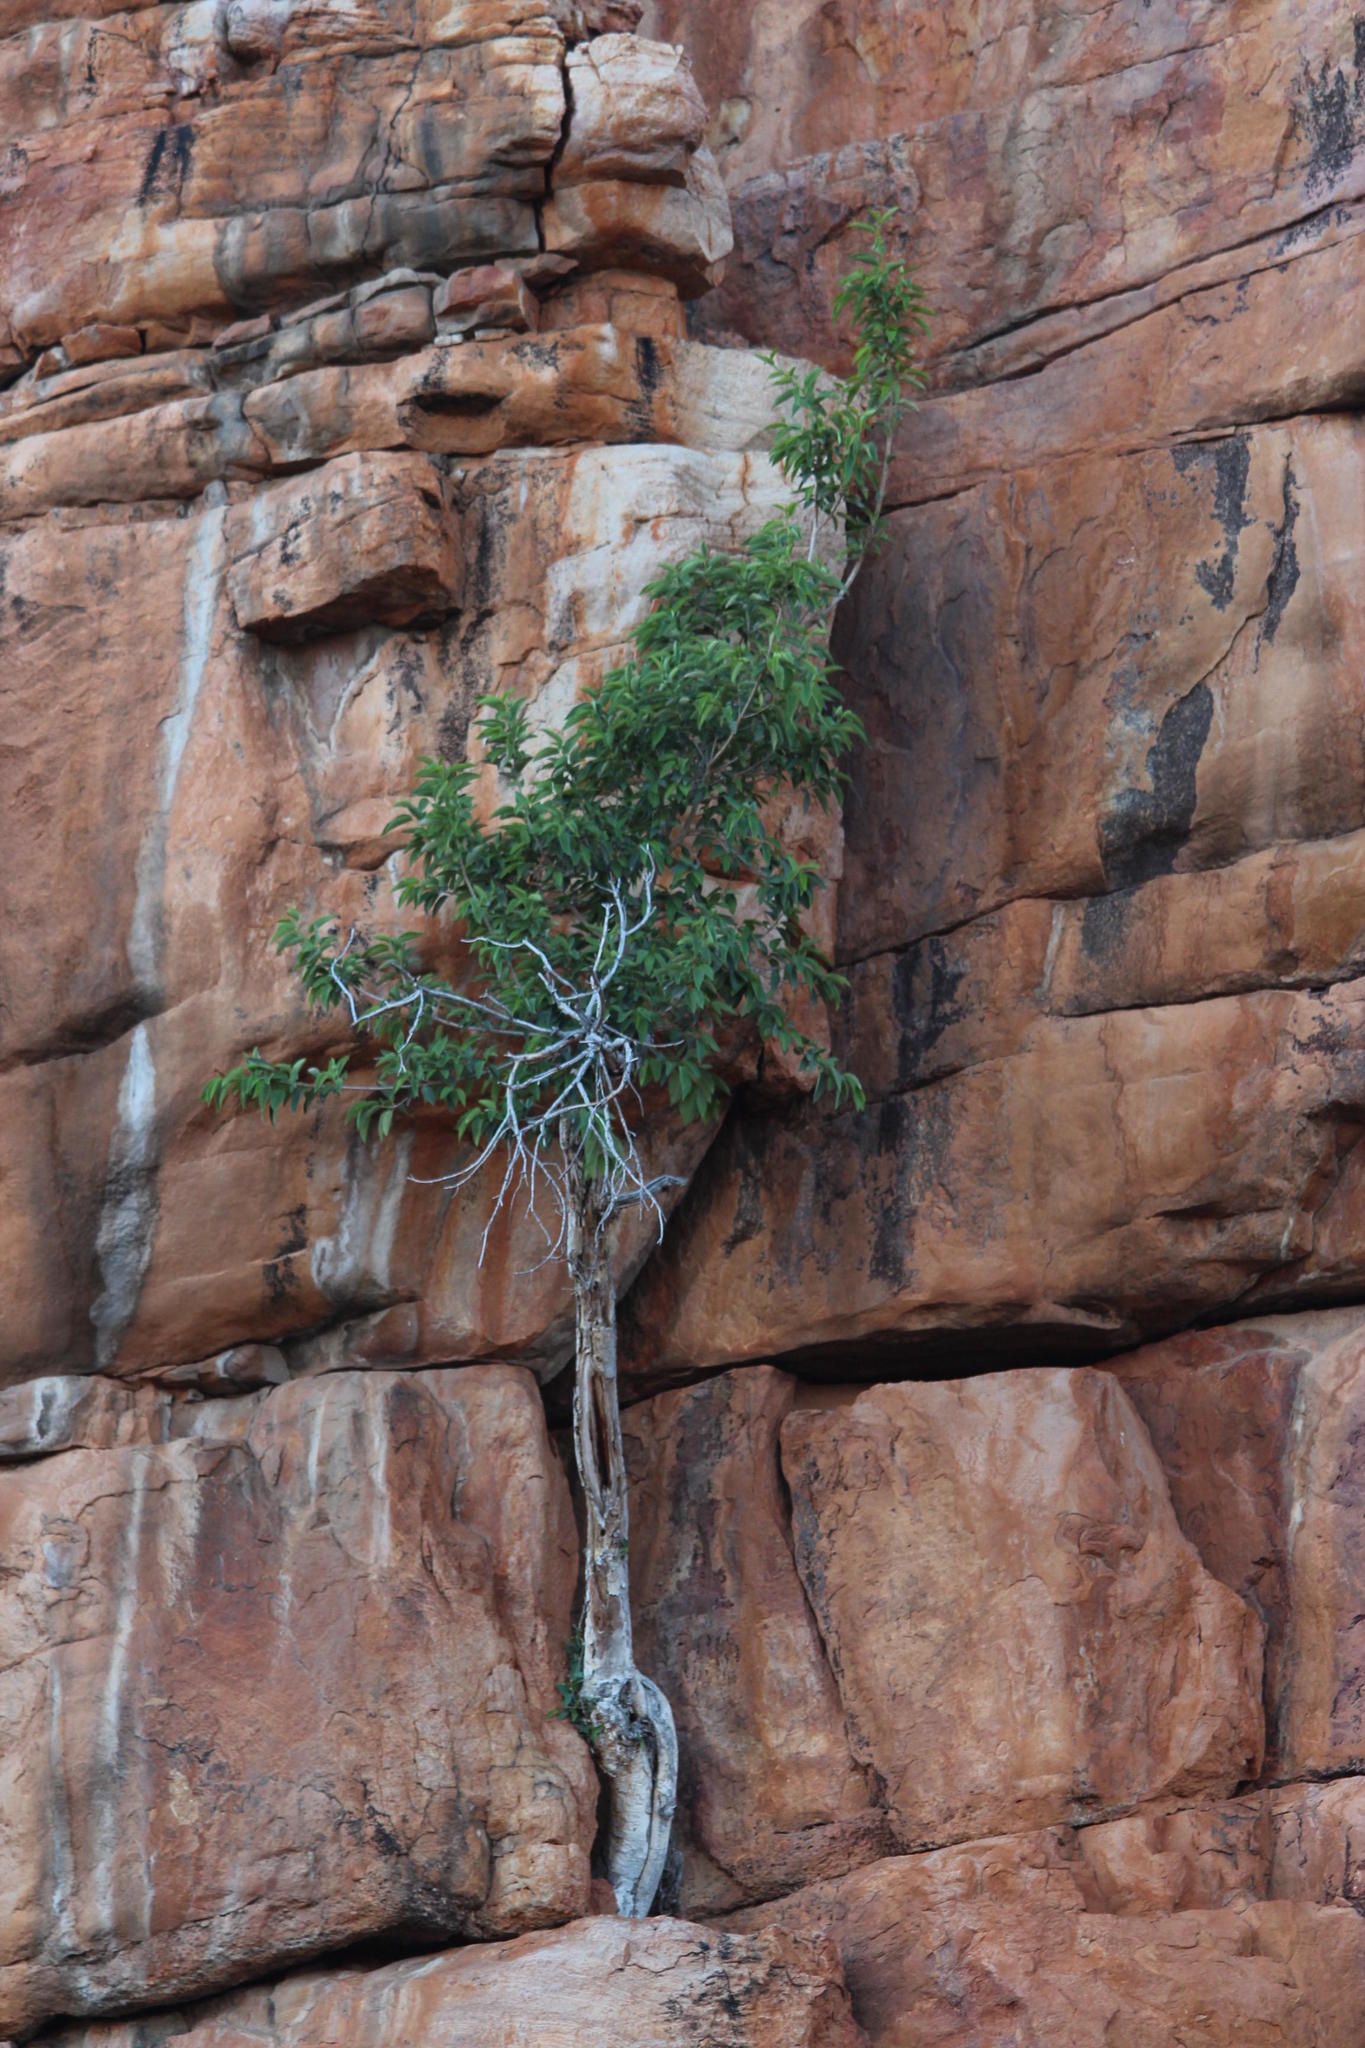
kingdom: Plantae
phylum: Tracheophyta
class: Magnoliopsida
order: Rosales
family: Moraceae
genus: Ficus
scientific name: Ficus cordata
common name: Namaqua rock fig
